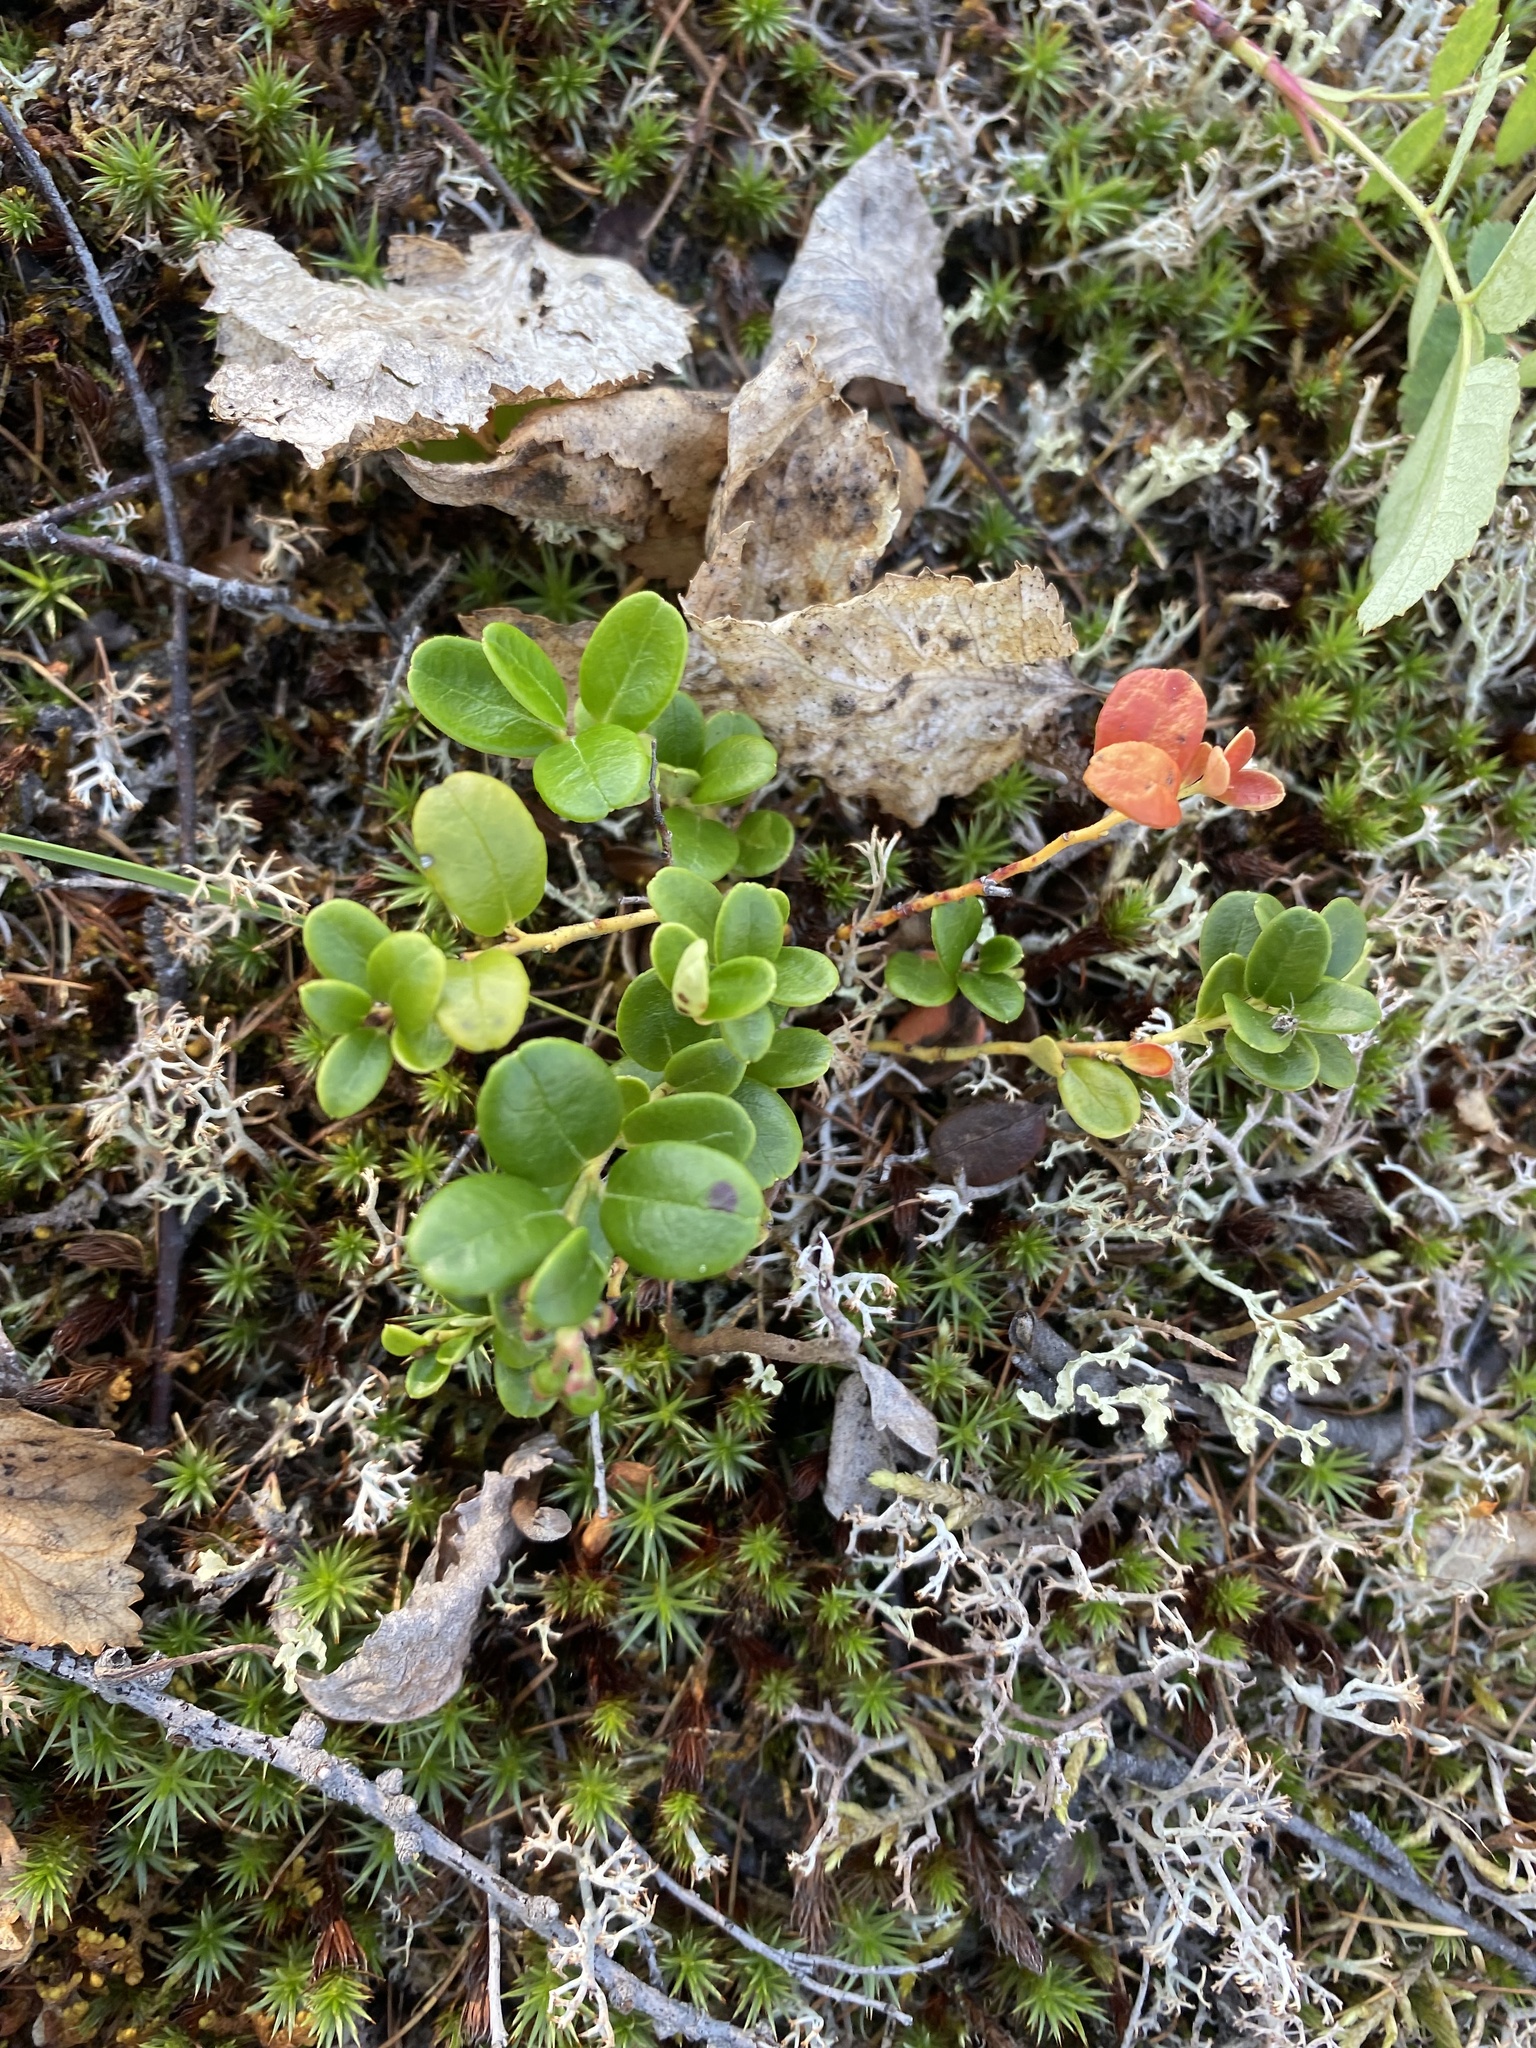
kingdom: Plantae
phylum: Tracheophyta
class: Magnoliopsida
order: Ericales
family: Ericaceae
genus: Vaccinium
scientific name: Vaccinium vitis-idaea
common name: Cowberry
